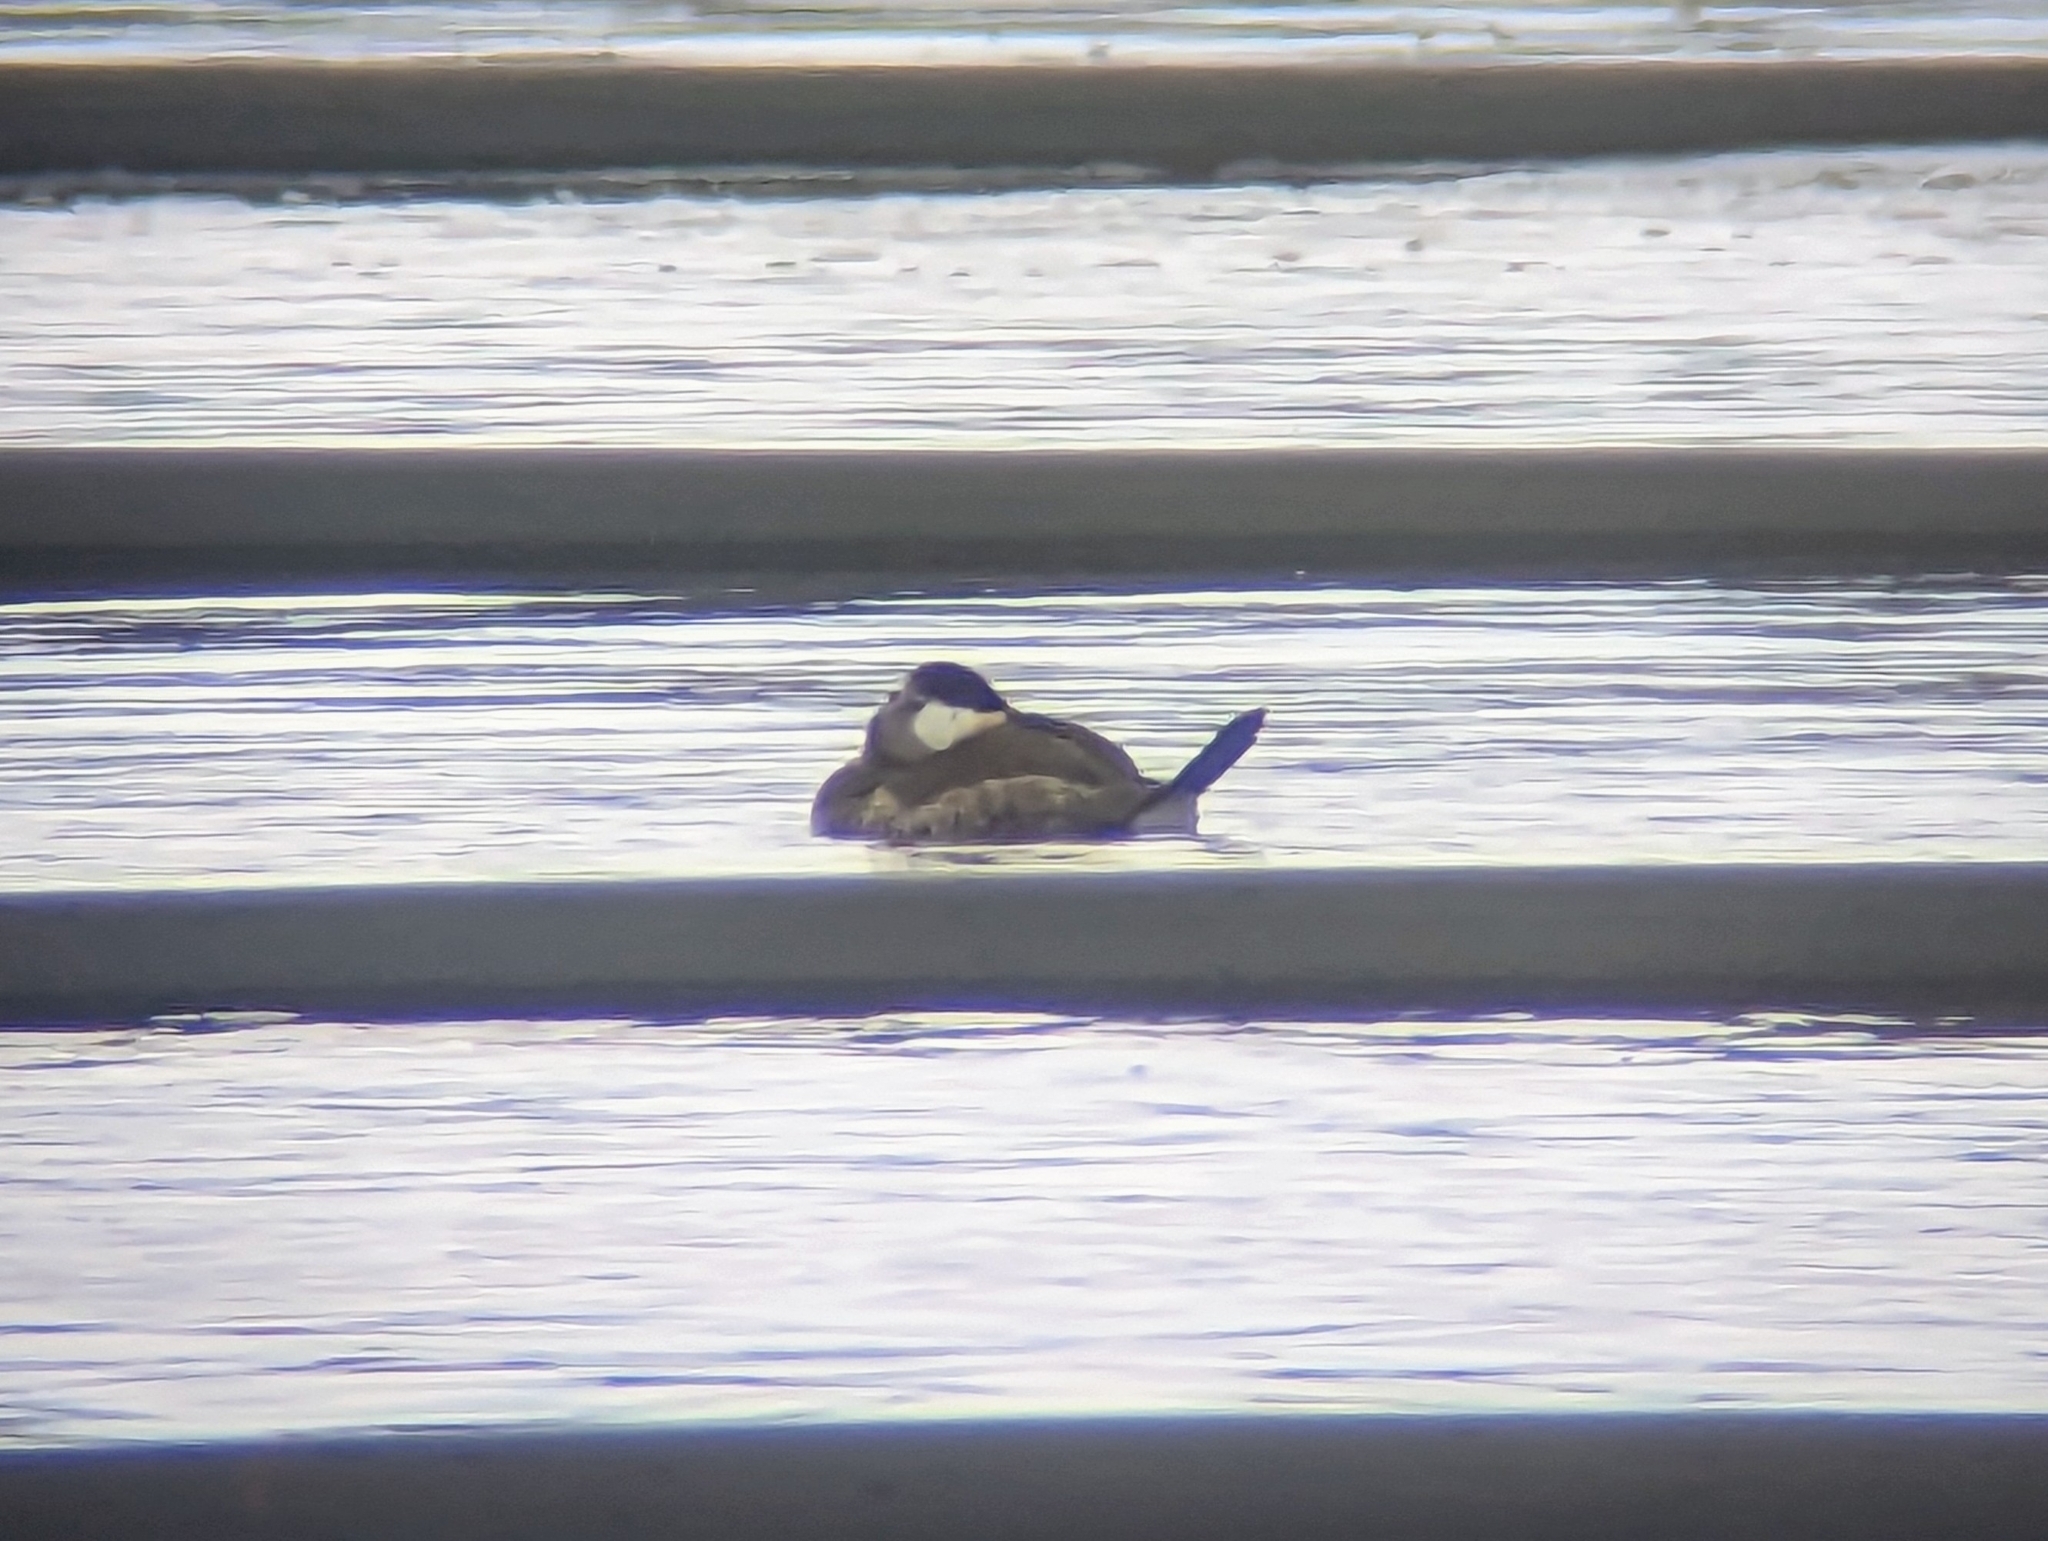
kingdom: Animalia
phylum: Chordata
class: Aves
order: Anseriformes
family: Anatidae
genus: Oxyura
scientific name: Oxyura jamaicensis
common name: Ruddy duck
